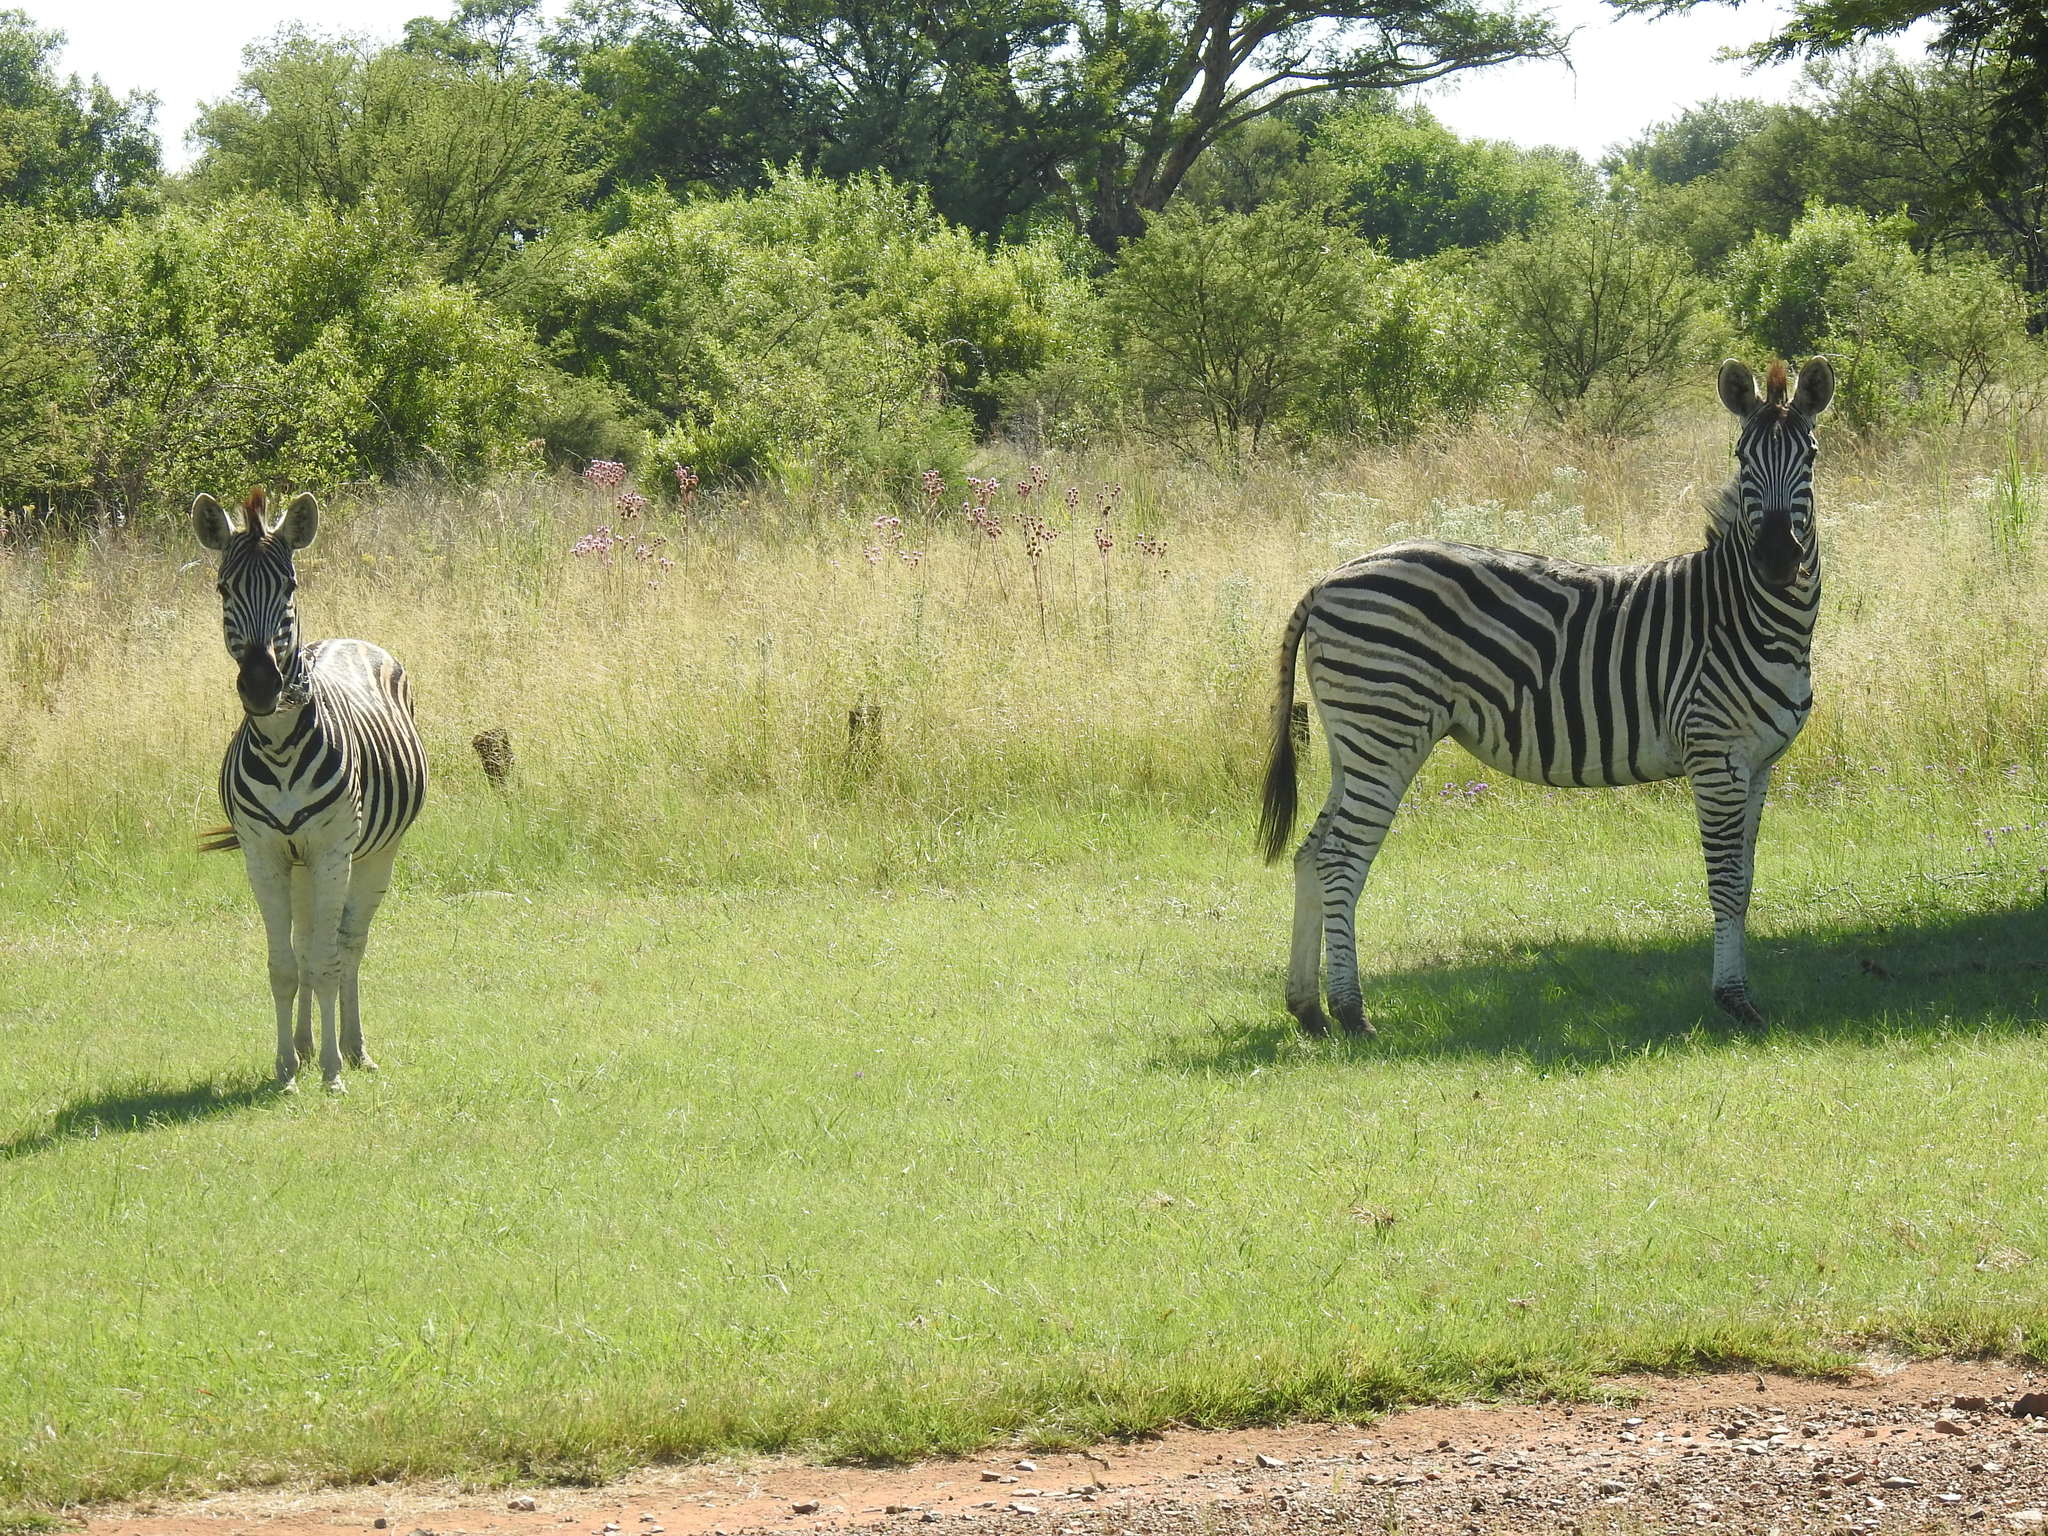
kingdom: Animalia
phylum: Chordata
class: Mammalia
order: Perissodactyla
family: Equidae
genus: Equus
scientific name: Equus quagga
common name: Plains zebra
